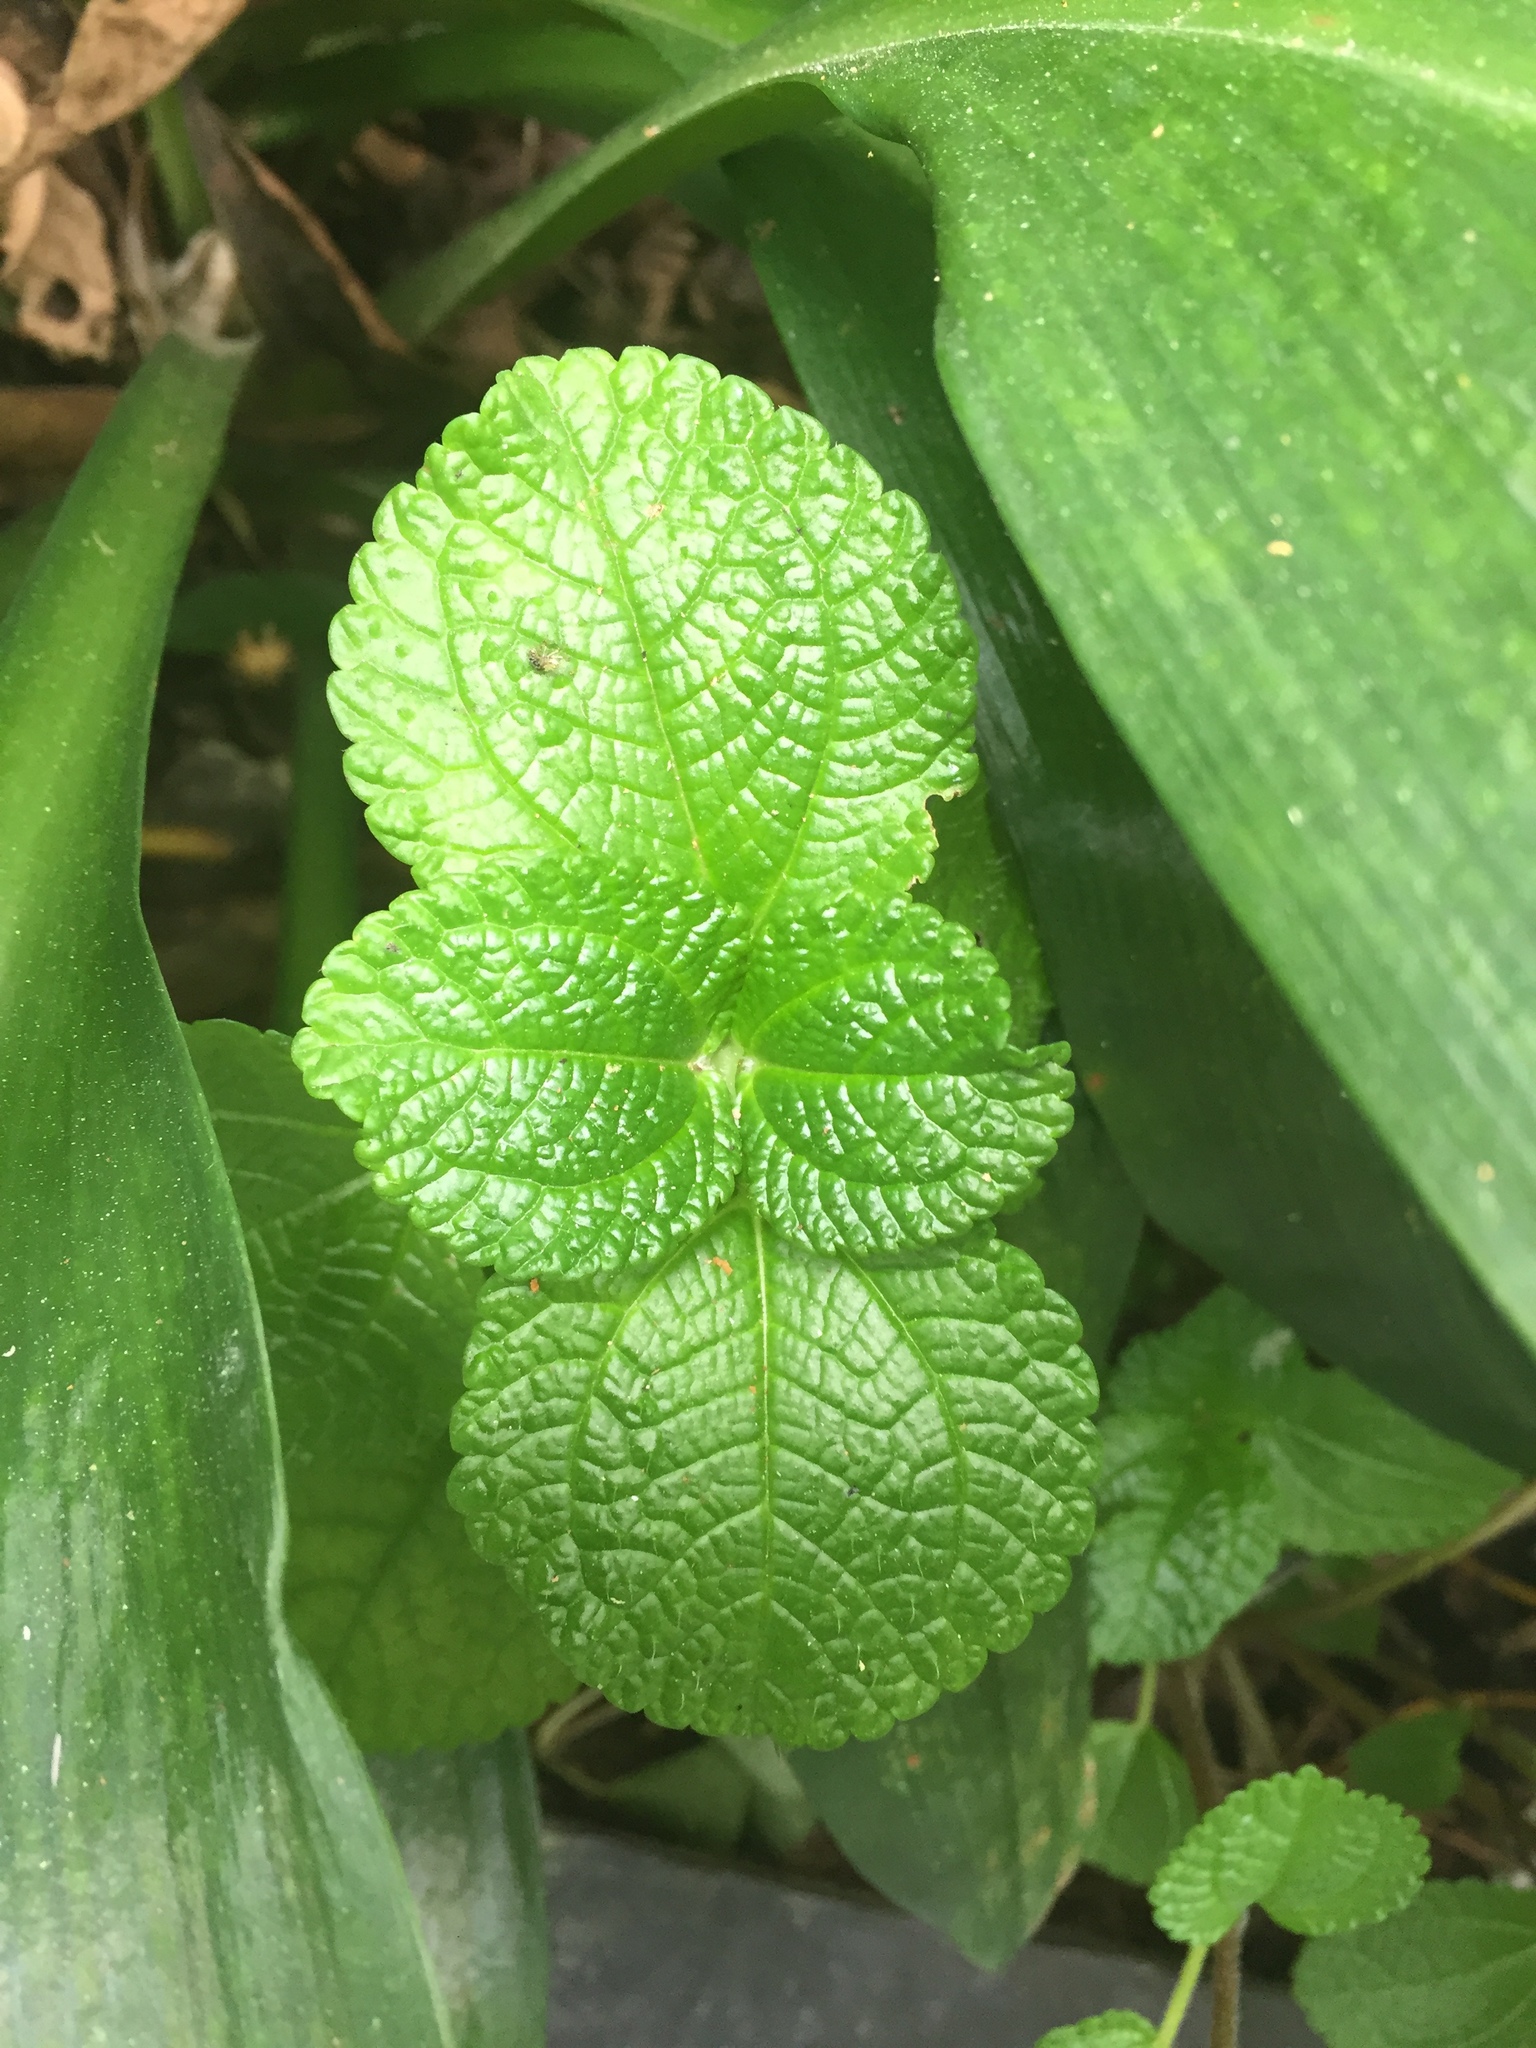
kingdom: Plantae
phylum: Tracheophyta
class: Magnoliopsida
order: Rosales
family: Urticaceae
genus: Pilea
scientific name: Pilea nummulariifolia
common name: Creeping-charlie
